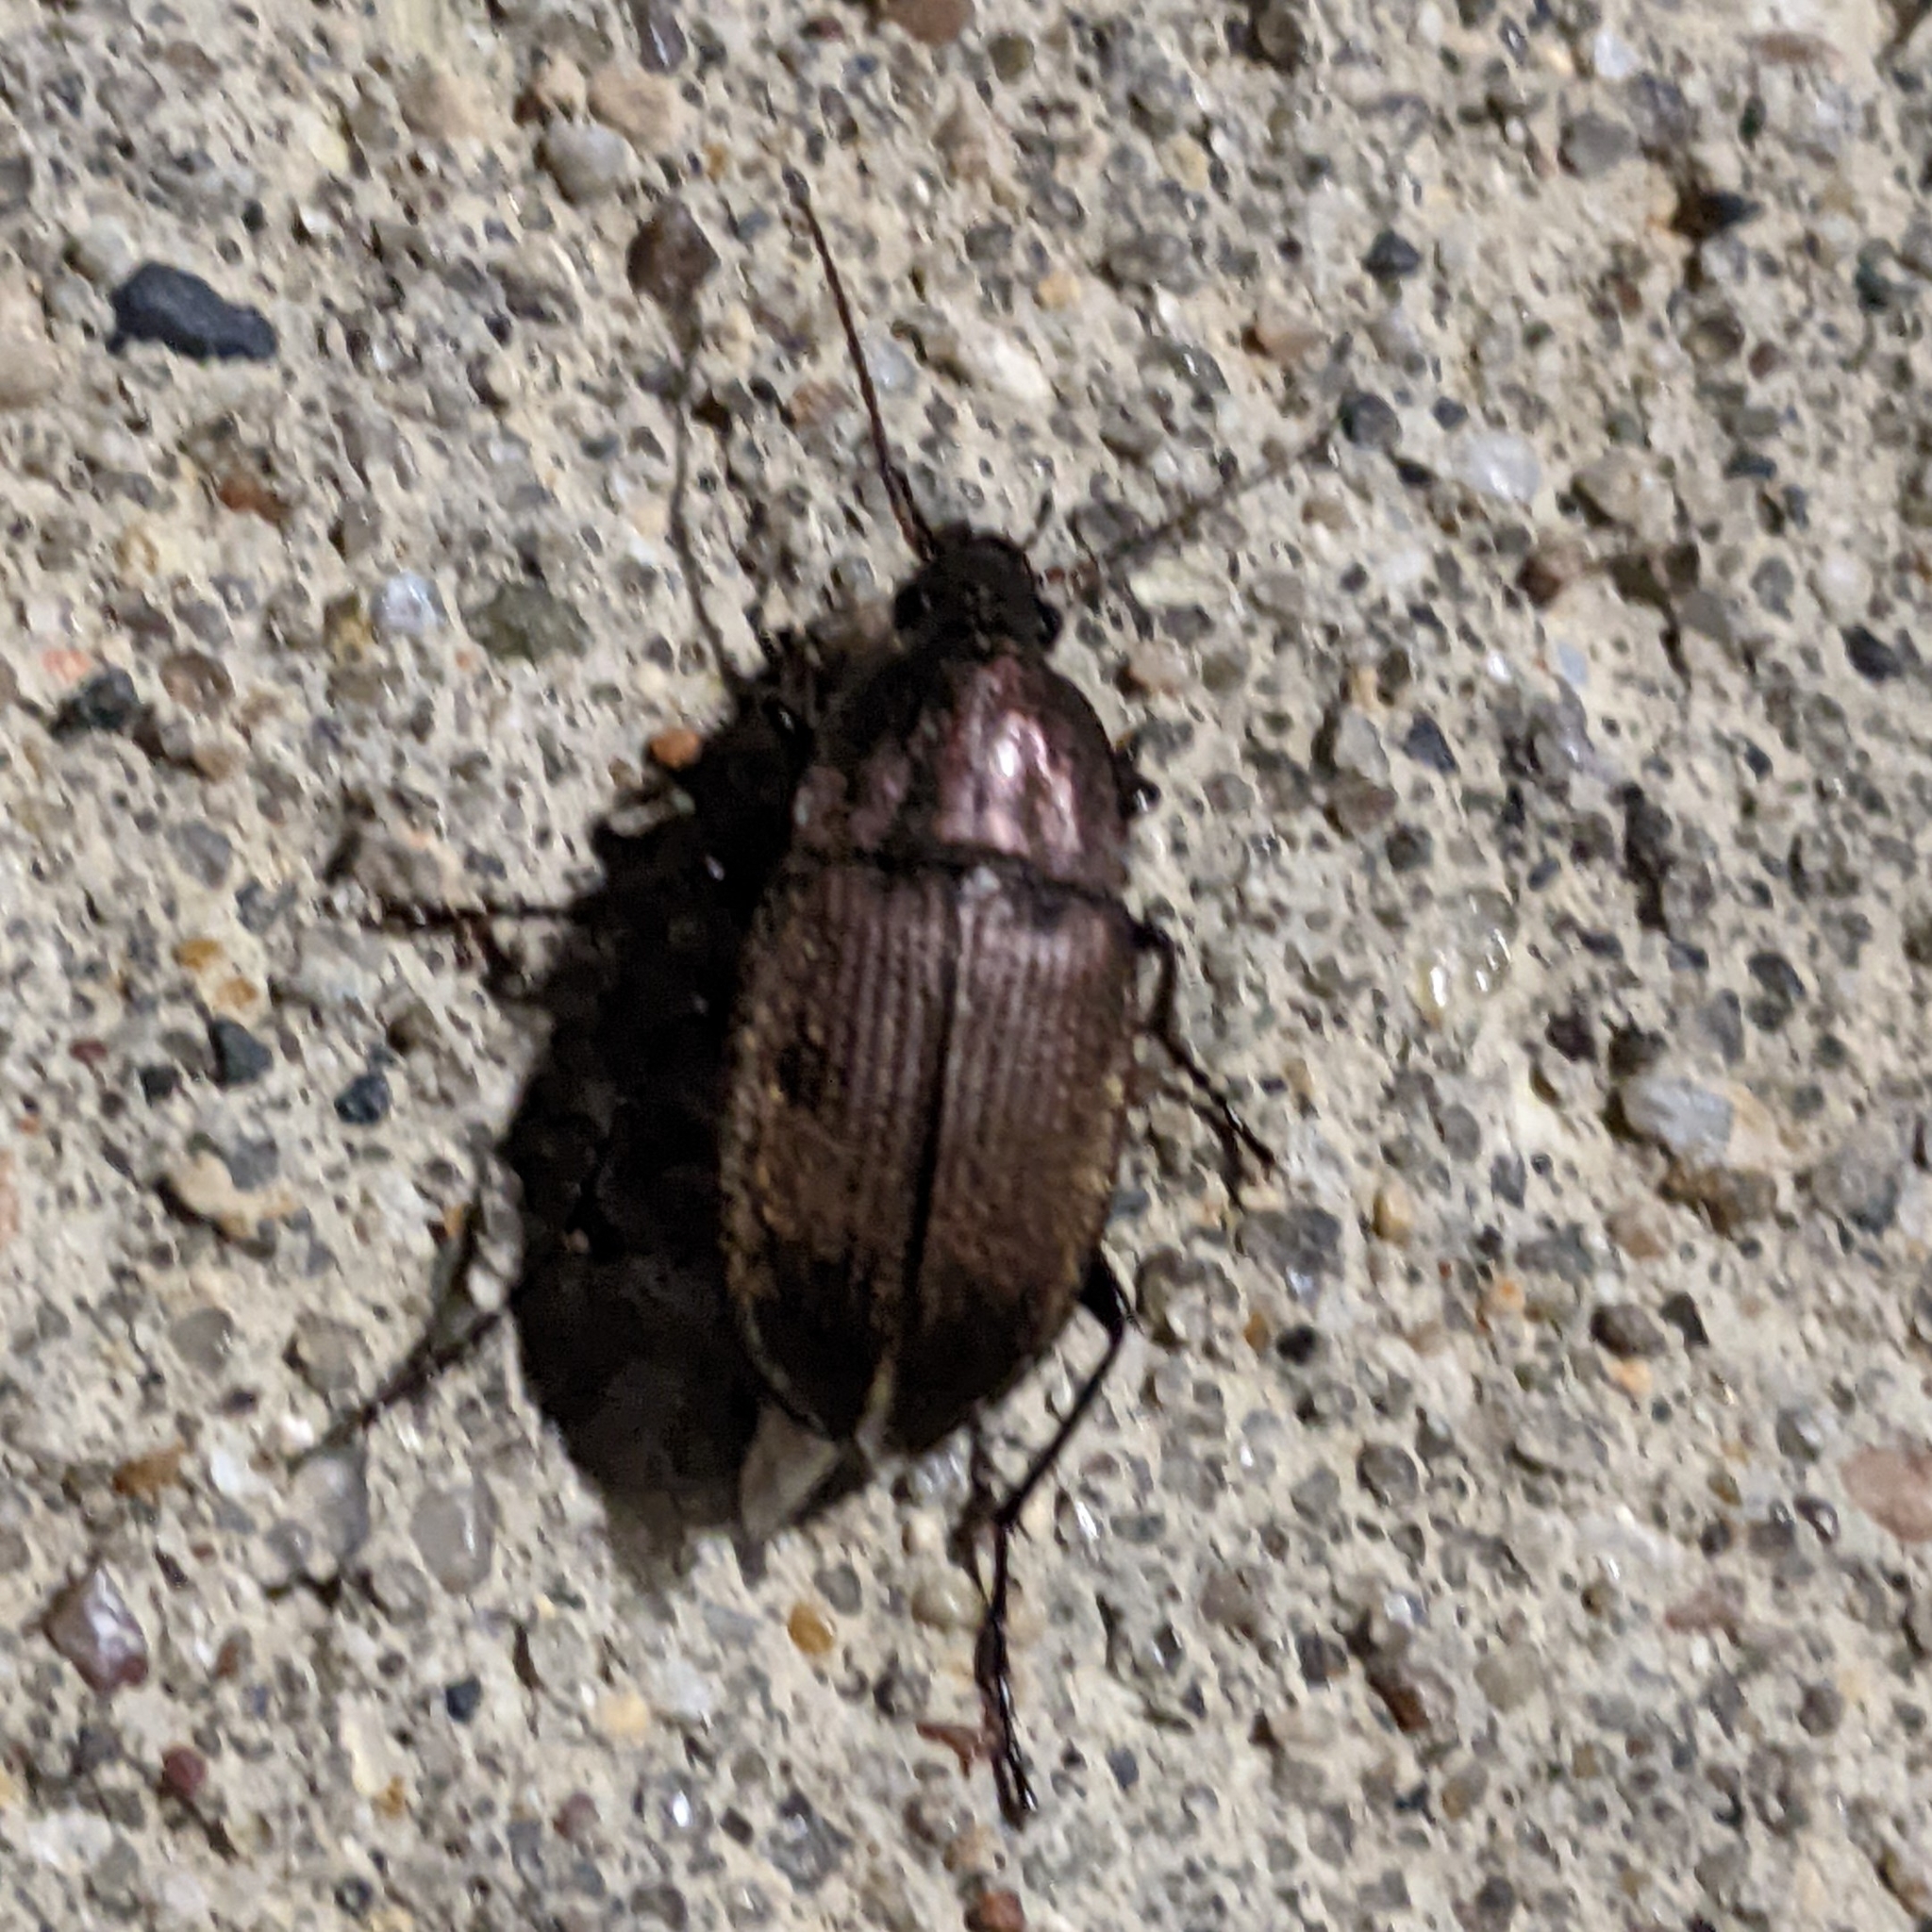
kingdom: Animalia
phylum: Arthropoda
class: Insecta
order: Coleoptera
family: Carabidae
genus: Chlaenius
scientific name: Chlaenius tomentosus
